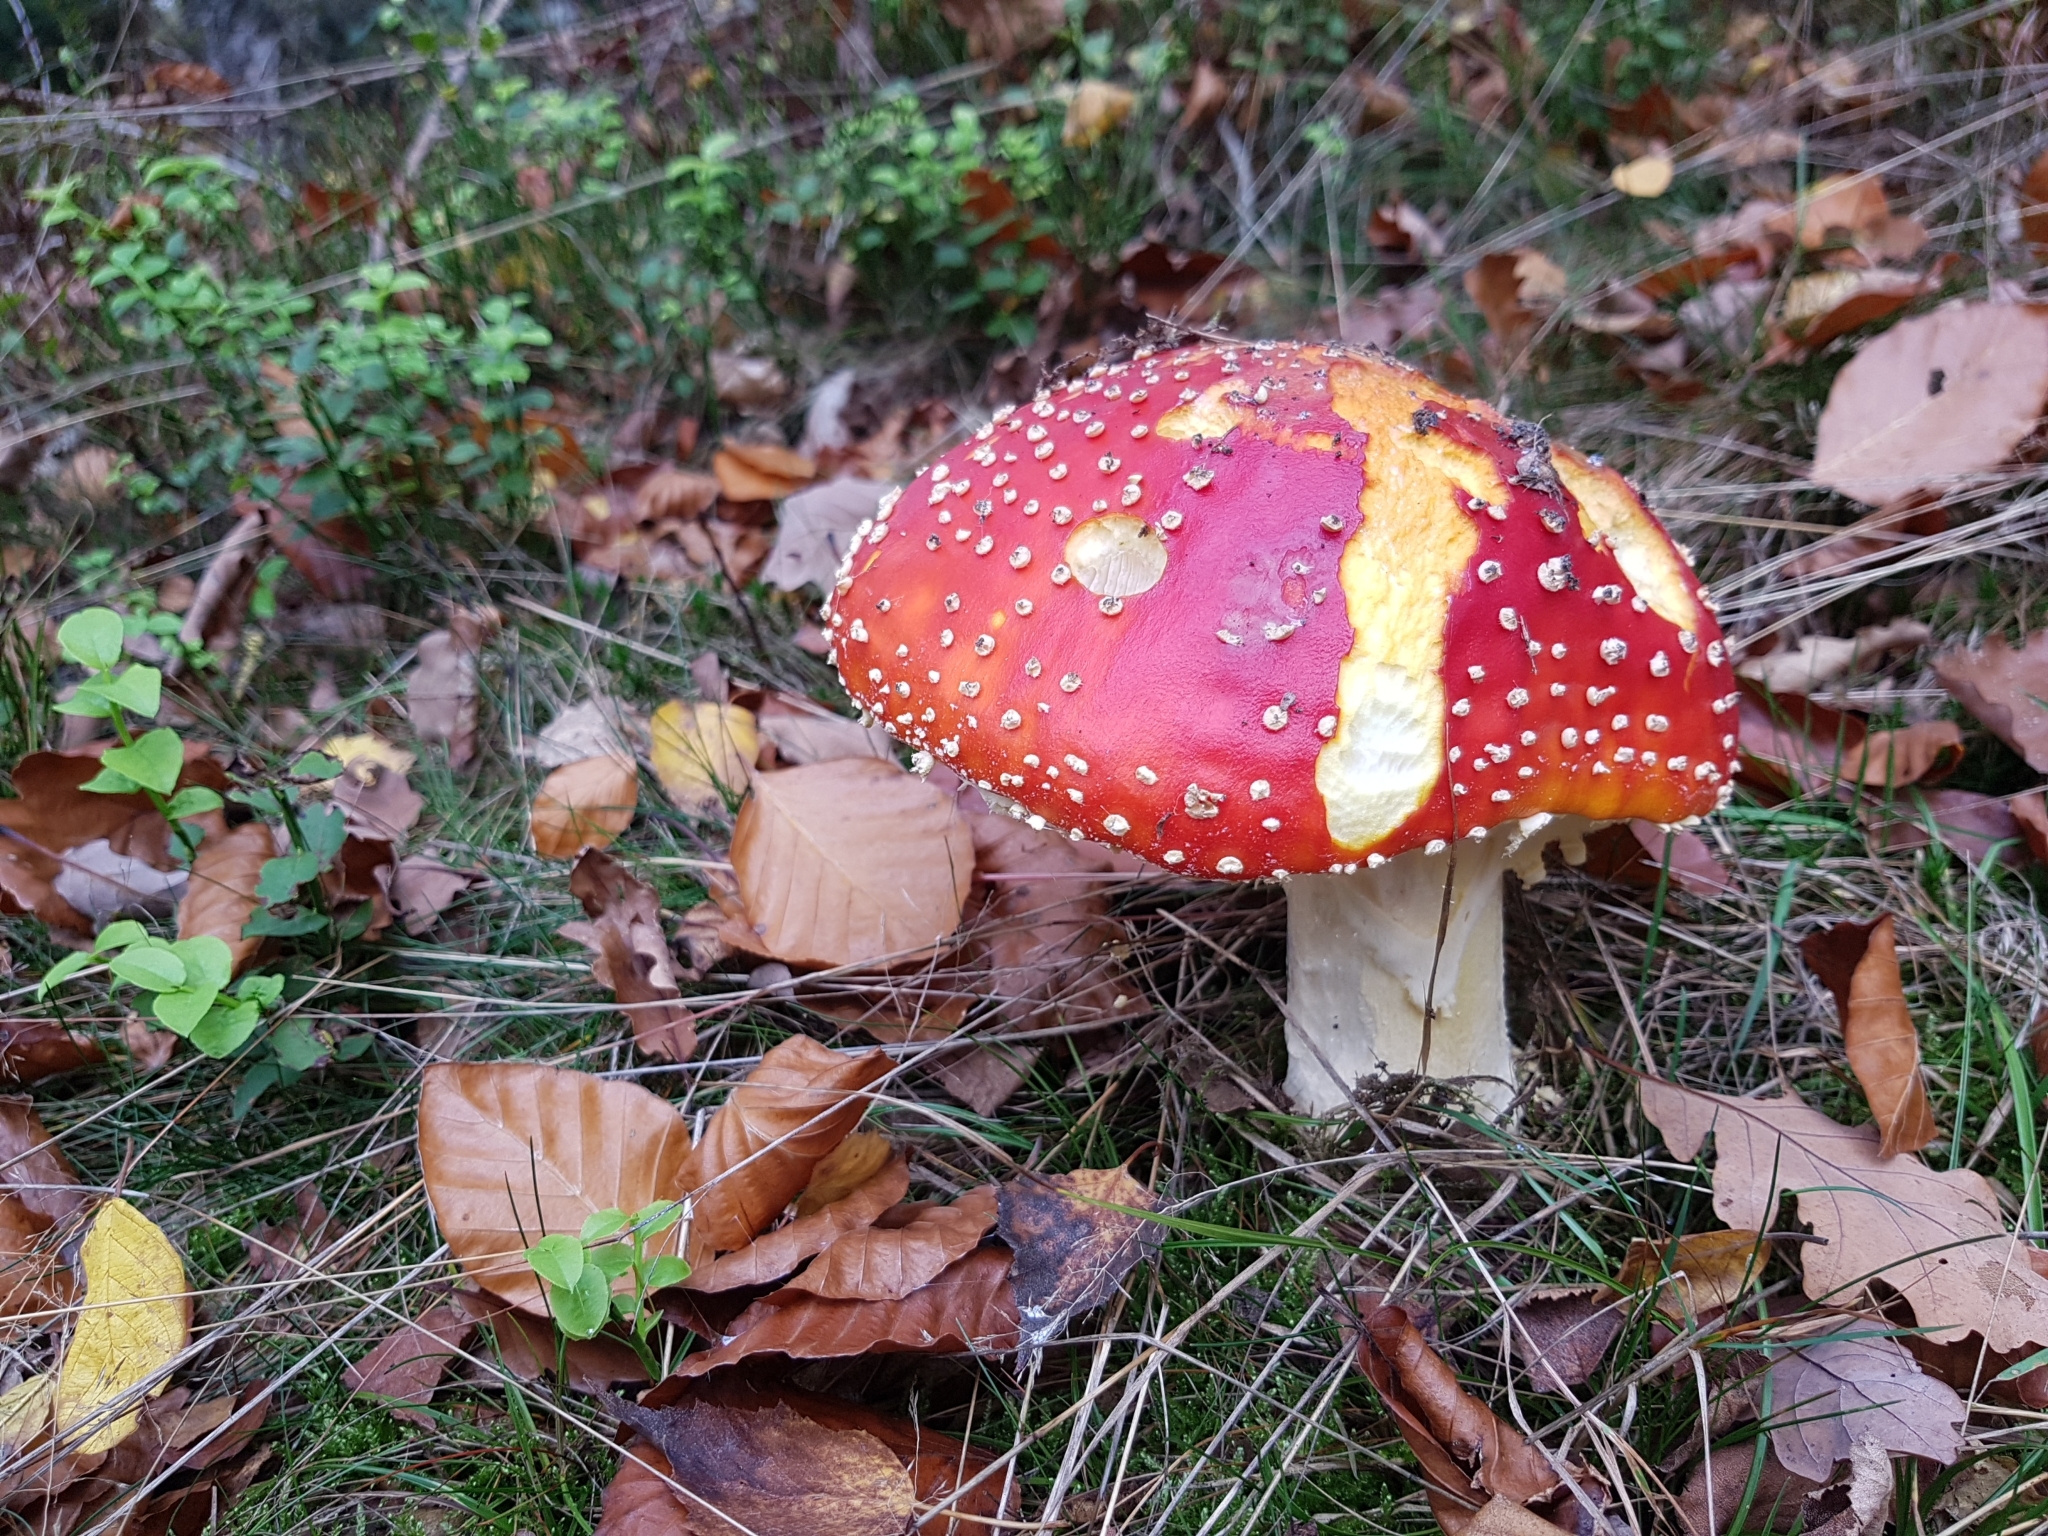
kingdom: Fungi
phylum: Basidiomycota
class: Agaricomycetes
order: Agaricales
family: Amanitaceae
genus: Amanita
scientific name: Amanita muscaria
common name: Fly agaric
